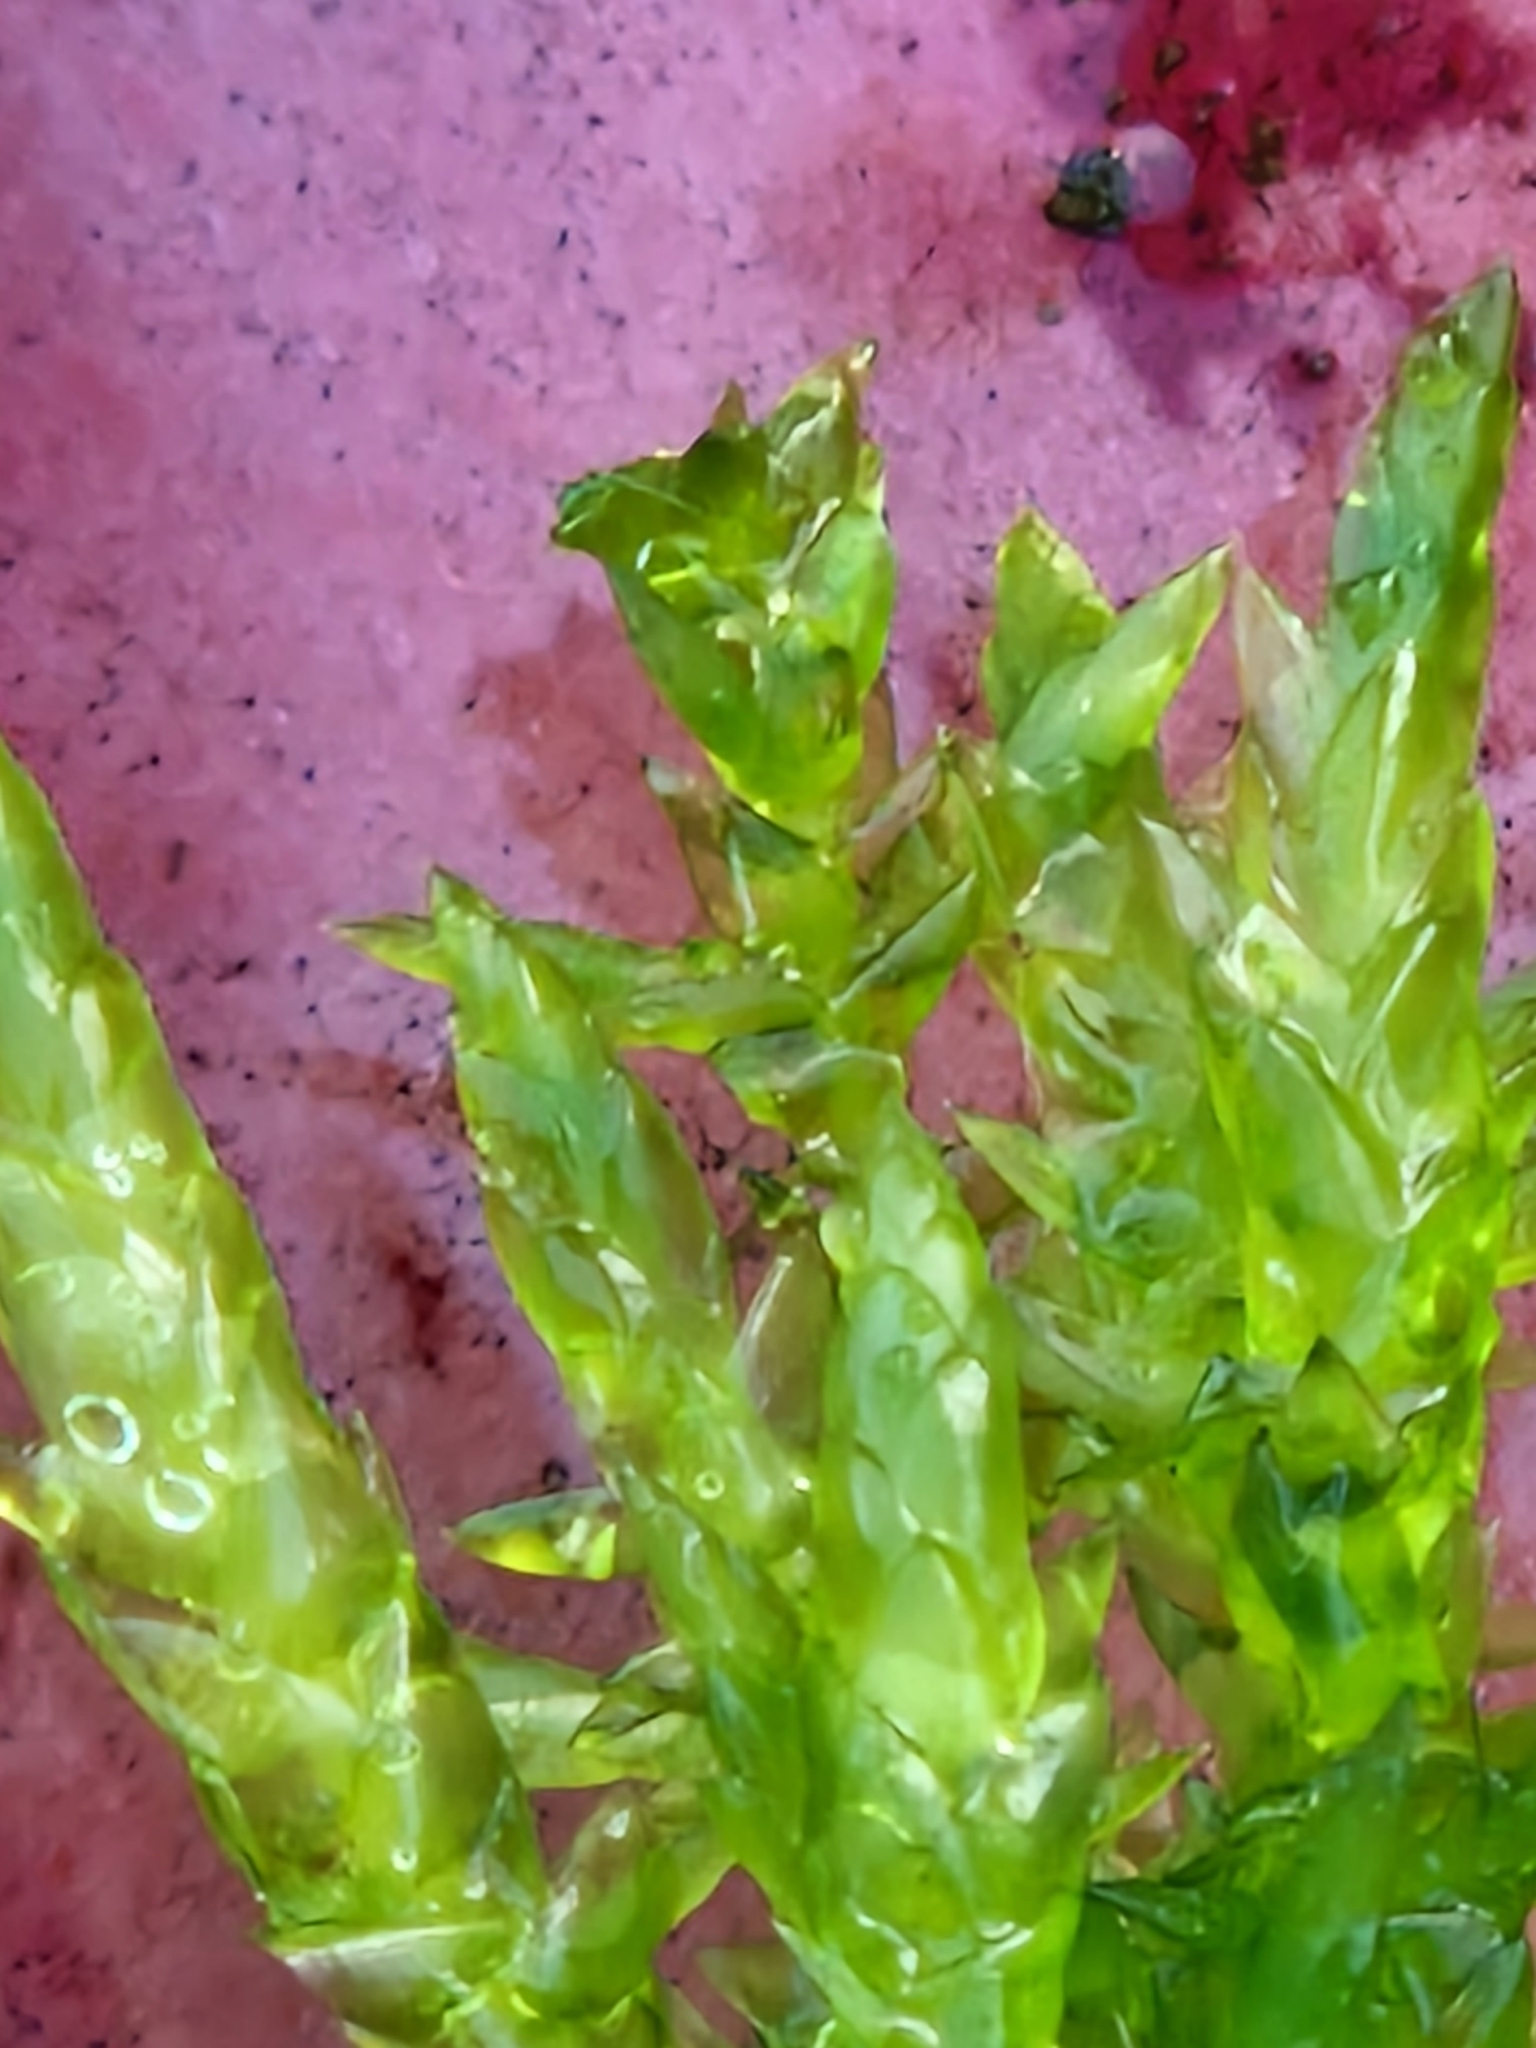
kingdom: Plantae
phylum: Bryophyta
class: Bryopsida
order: Hypnales
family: Pylaisiaceae
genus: Calliergonella
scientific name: Calliergonella cuspidata
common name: Common large wetland moss
